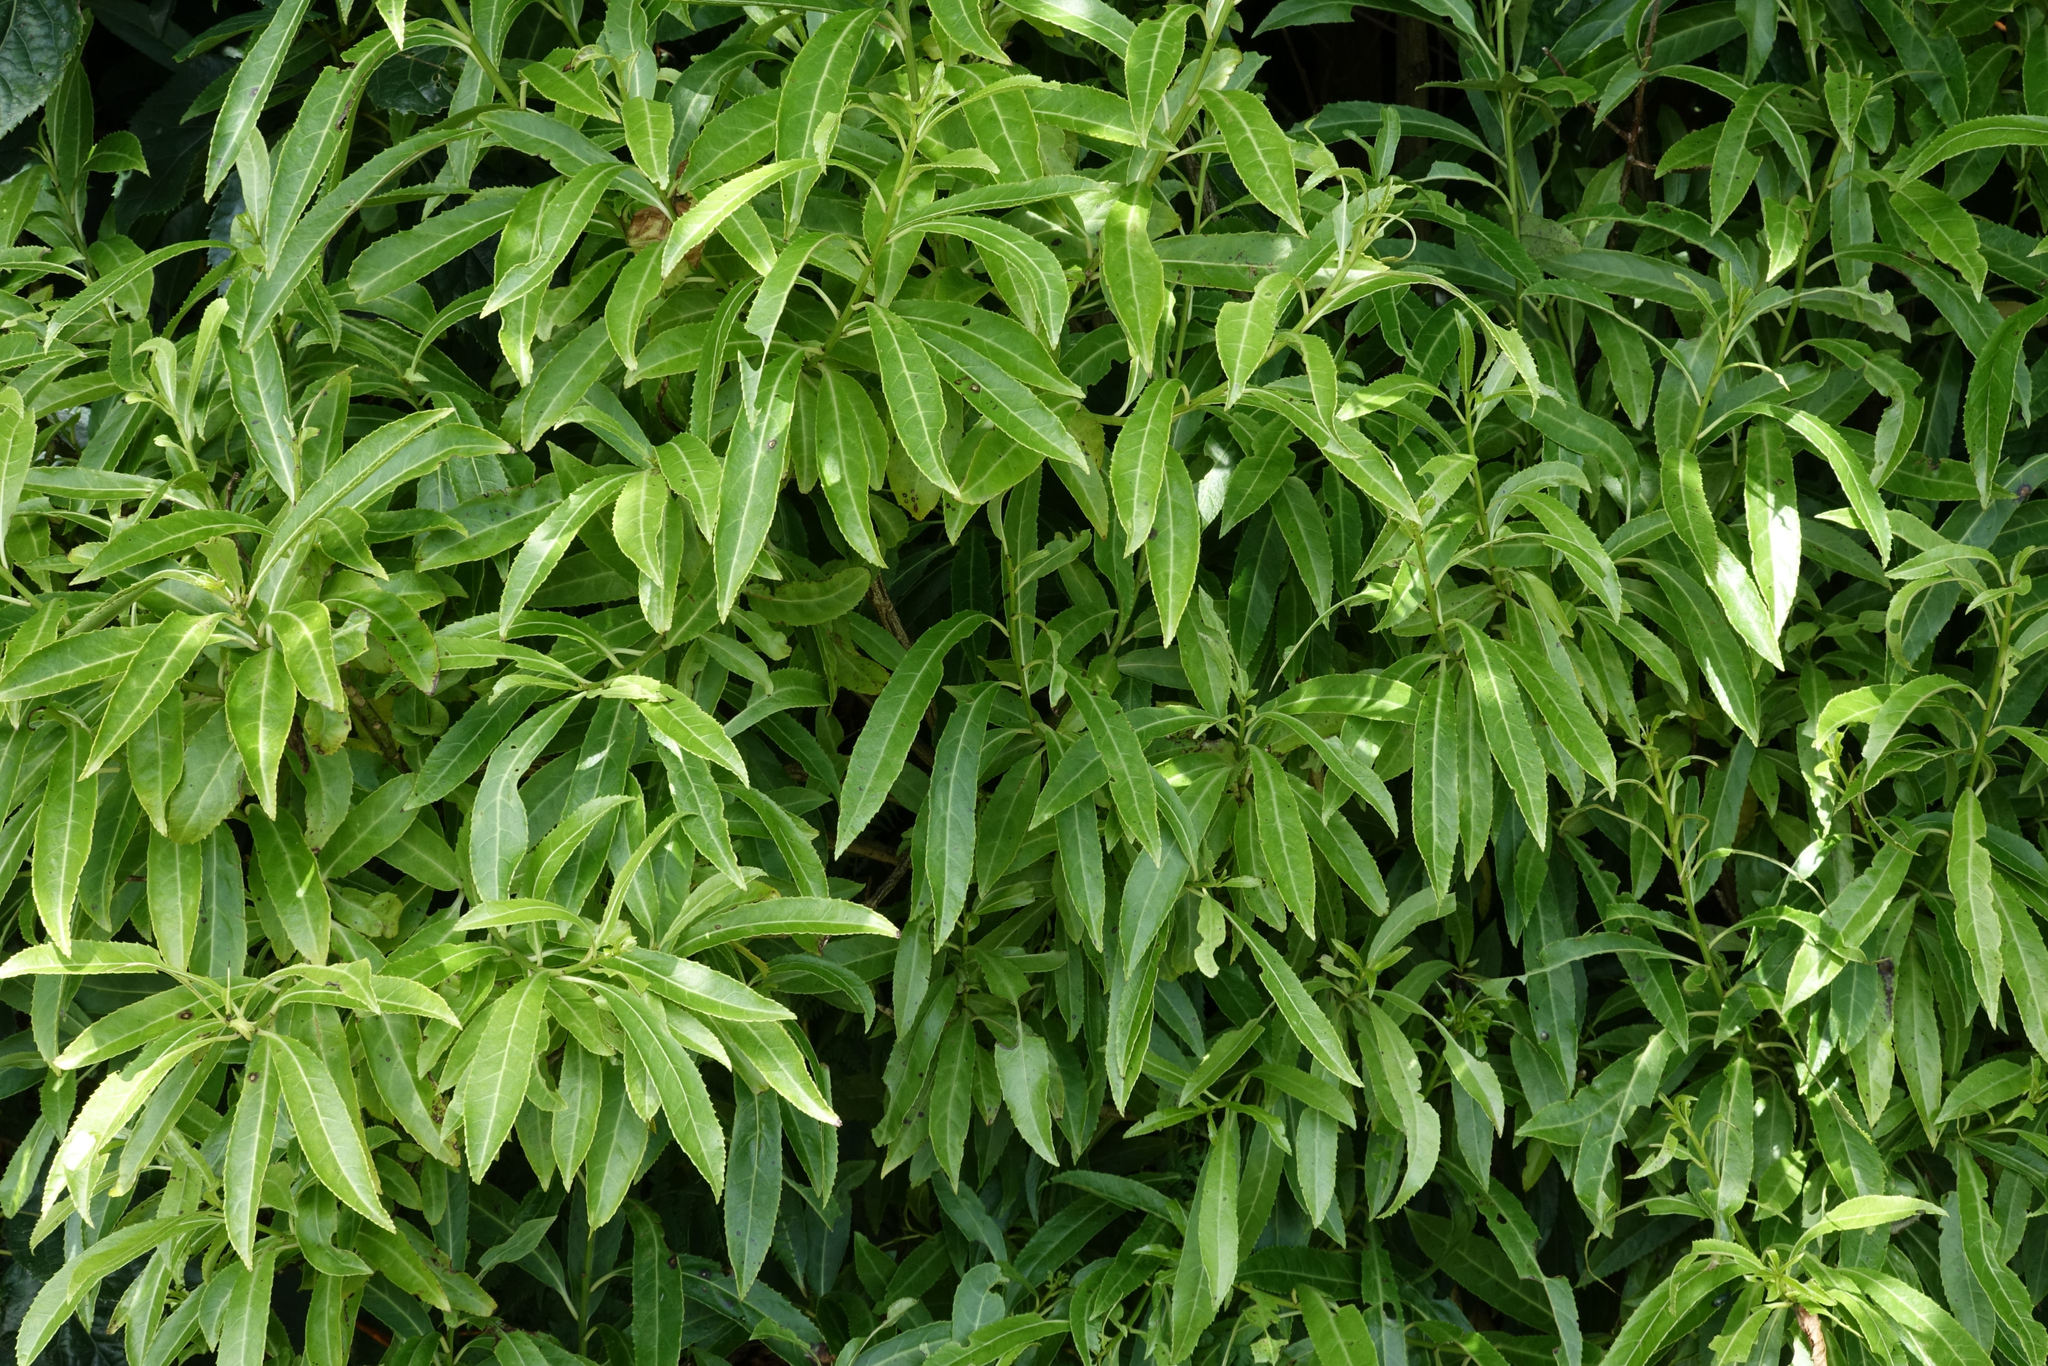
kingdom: Plantae
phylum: Tracheophyta
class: Magnoliopsida
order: Malpighiales
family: Violaceae
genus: Melicytus
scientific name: Melicytus lanceolatus
